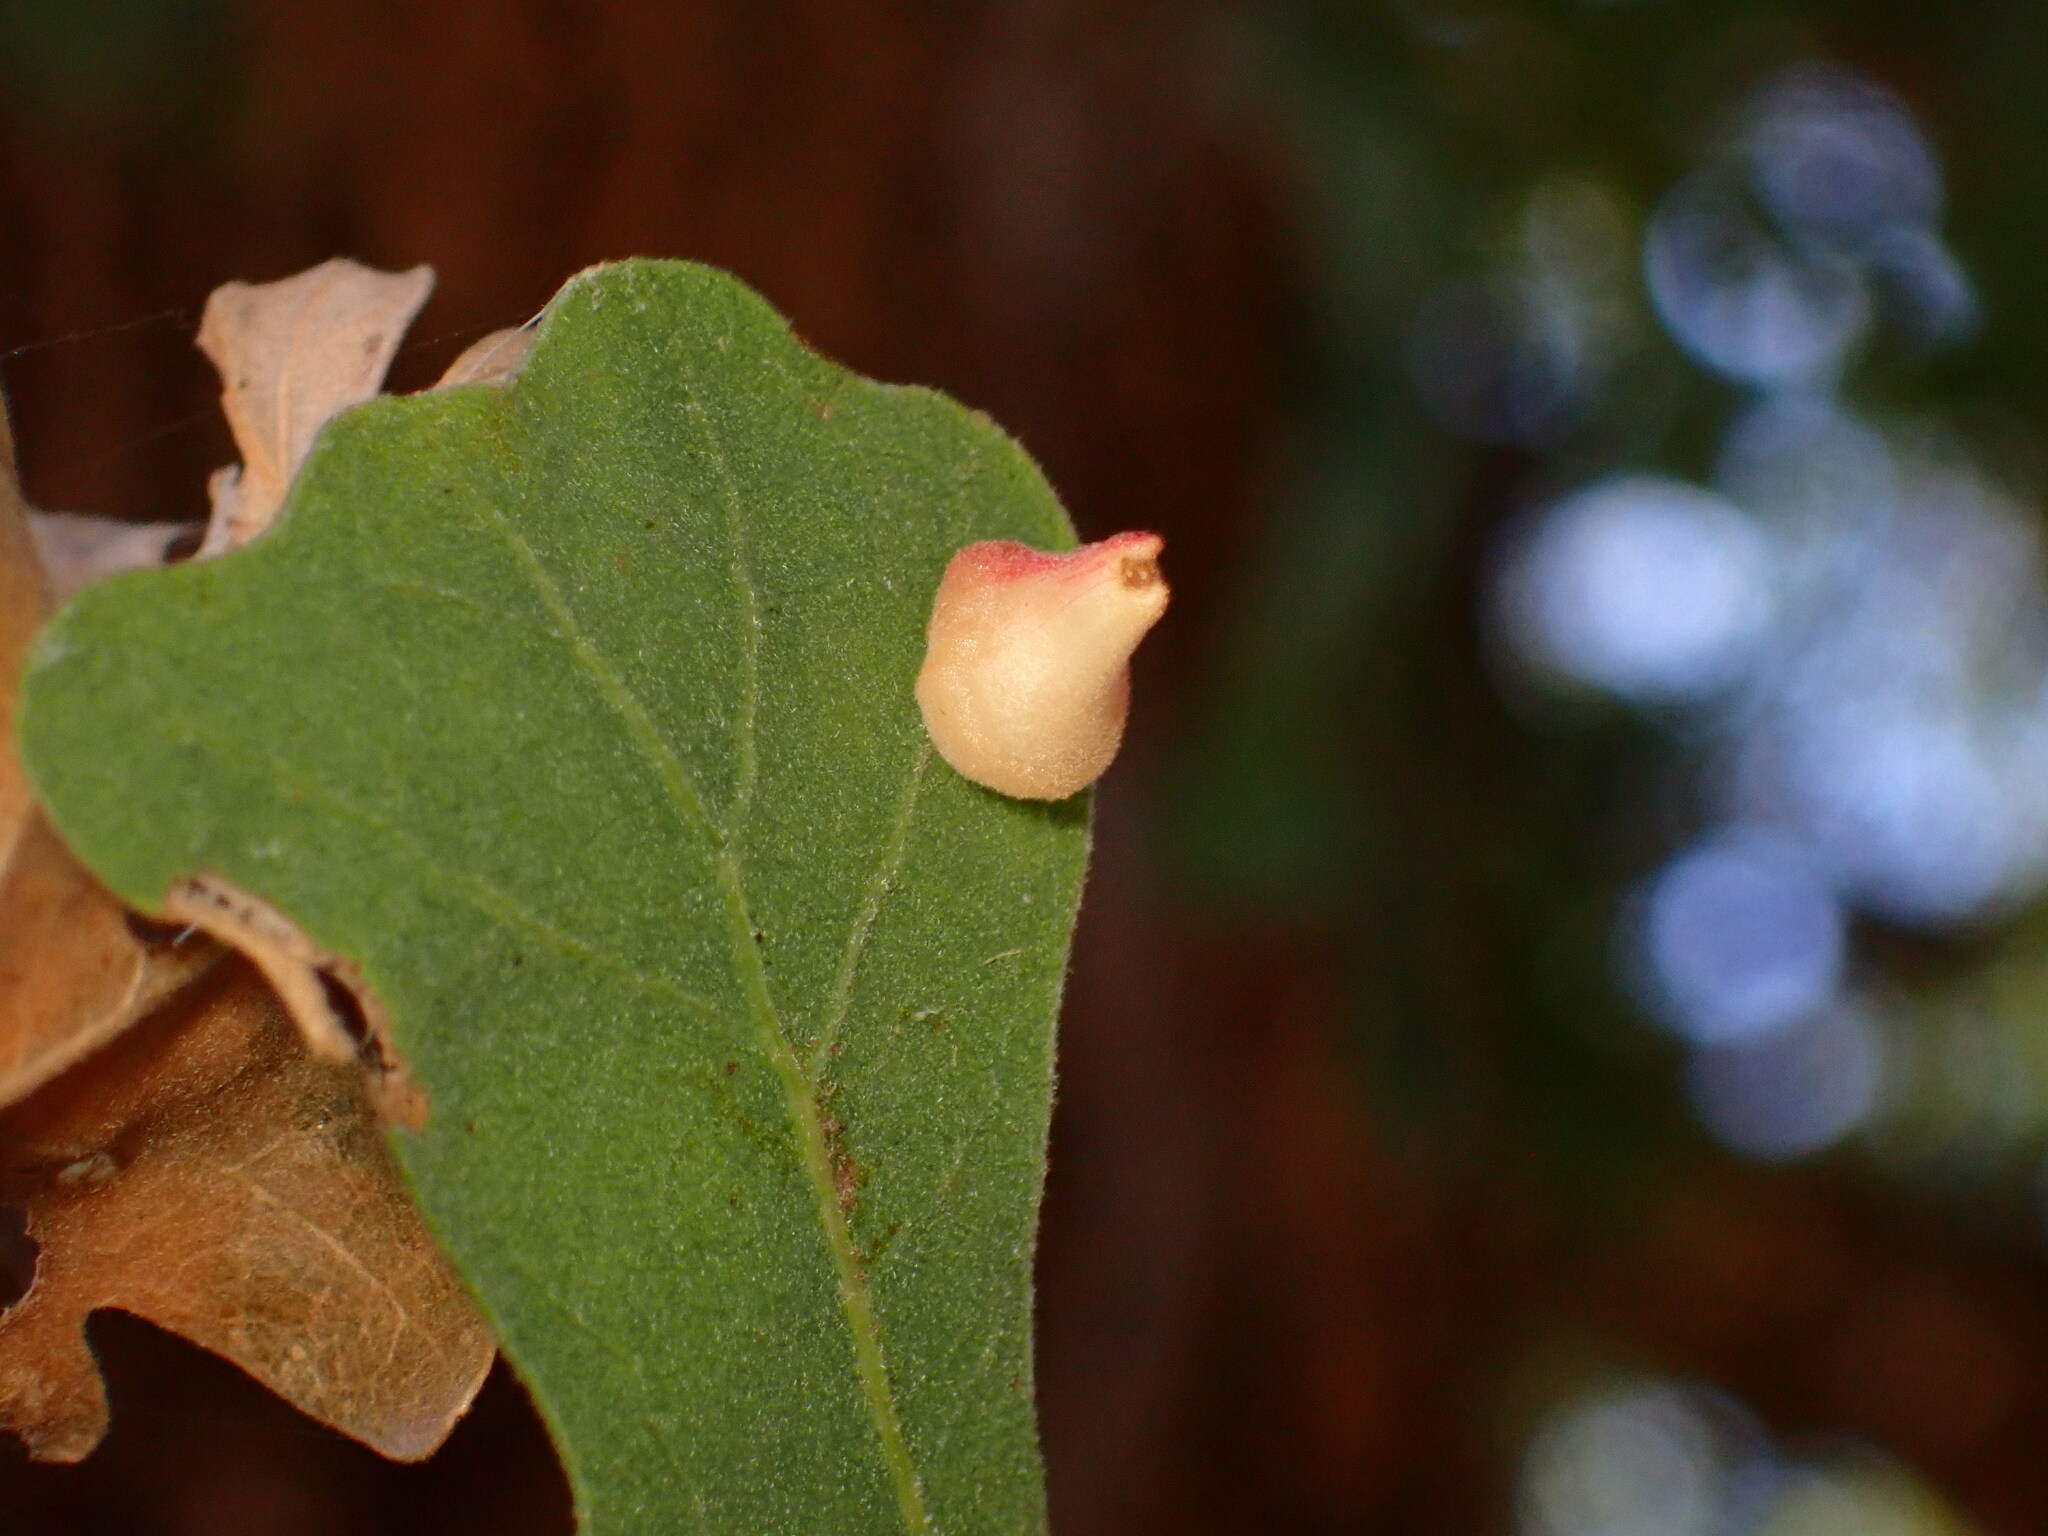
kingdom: Animalia
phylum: Arthropoda
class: Insecta
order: Hymenoptera
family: Cynipidae
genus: Andricus
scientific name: Andricus
